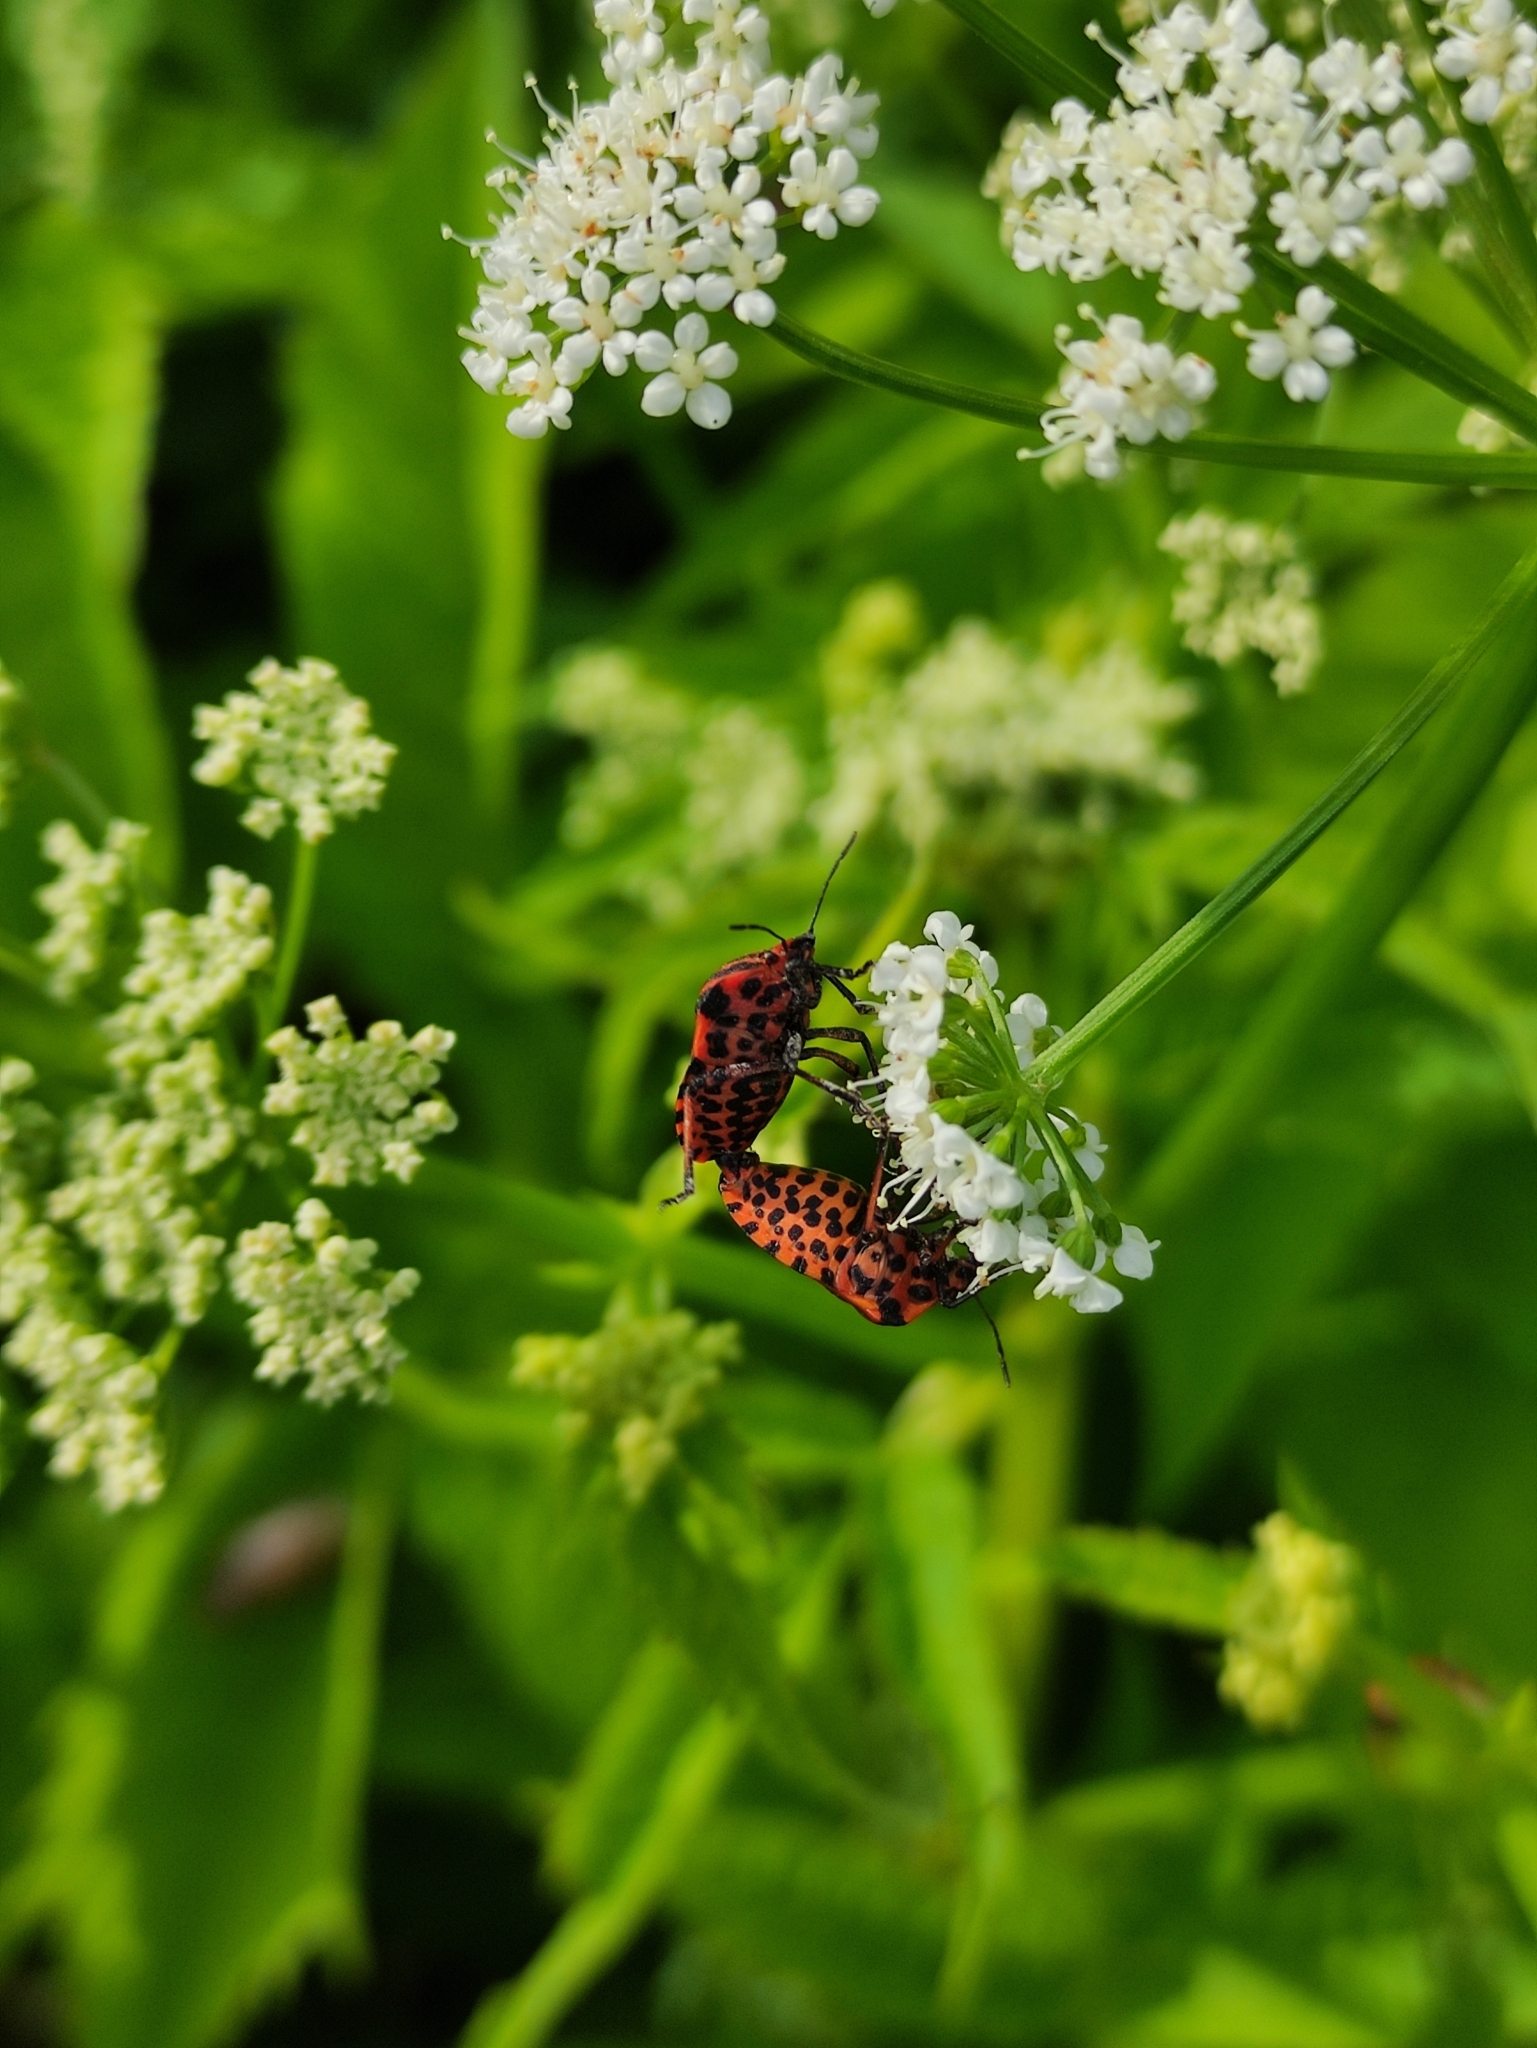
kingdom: Animalia
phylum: Arthropoda
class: Insecta
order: Hemiptera
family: Pentatomidae
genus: Graphosoma
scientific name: Graphosoma italicum
